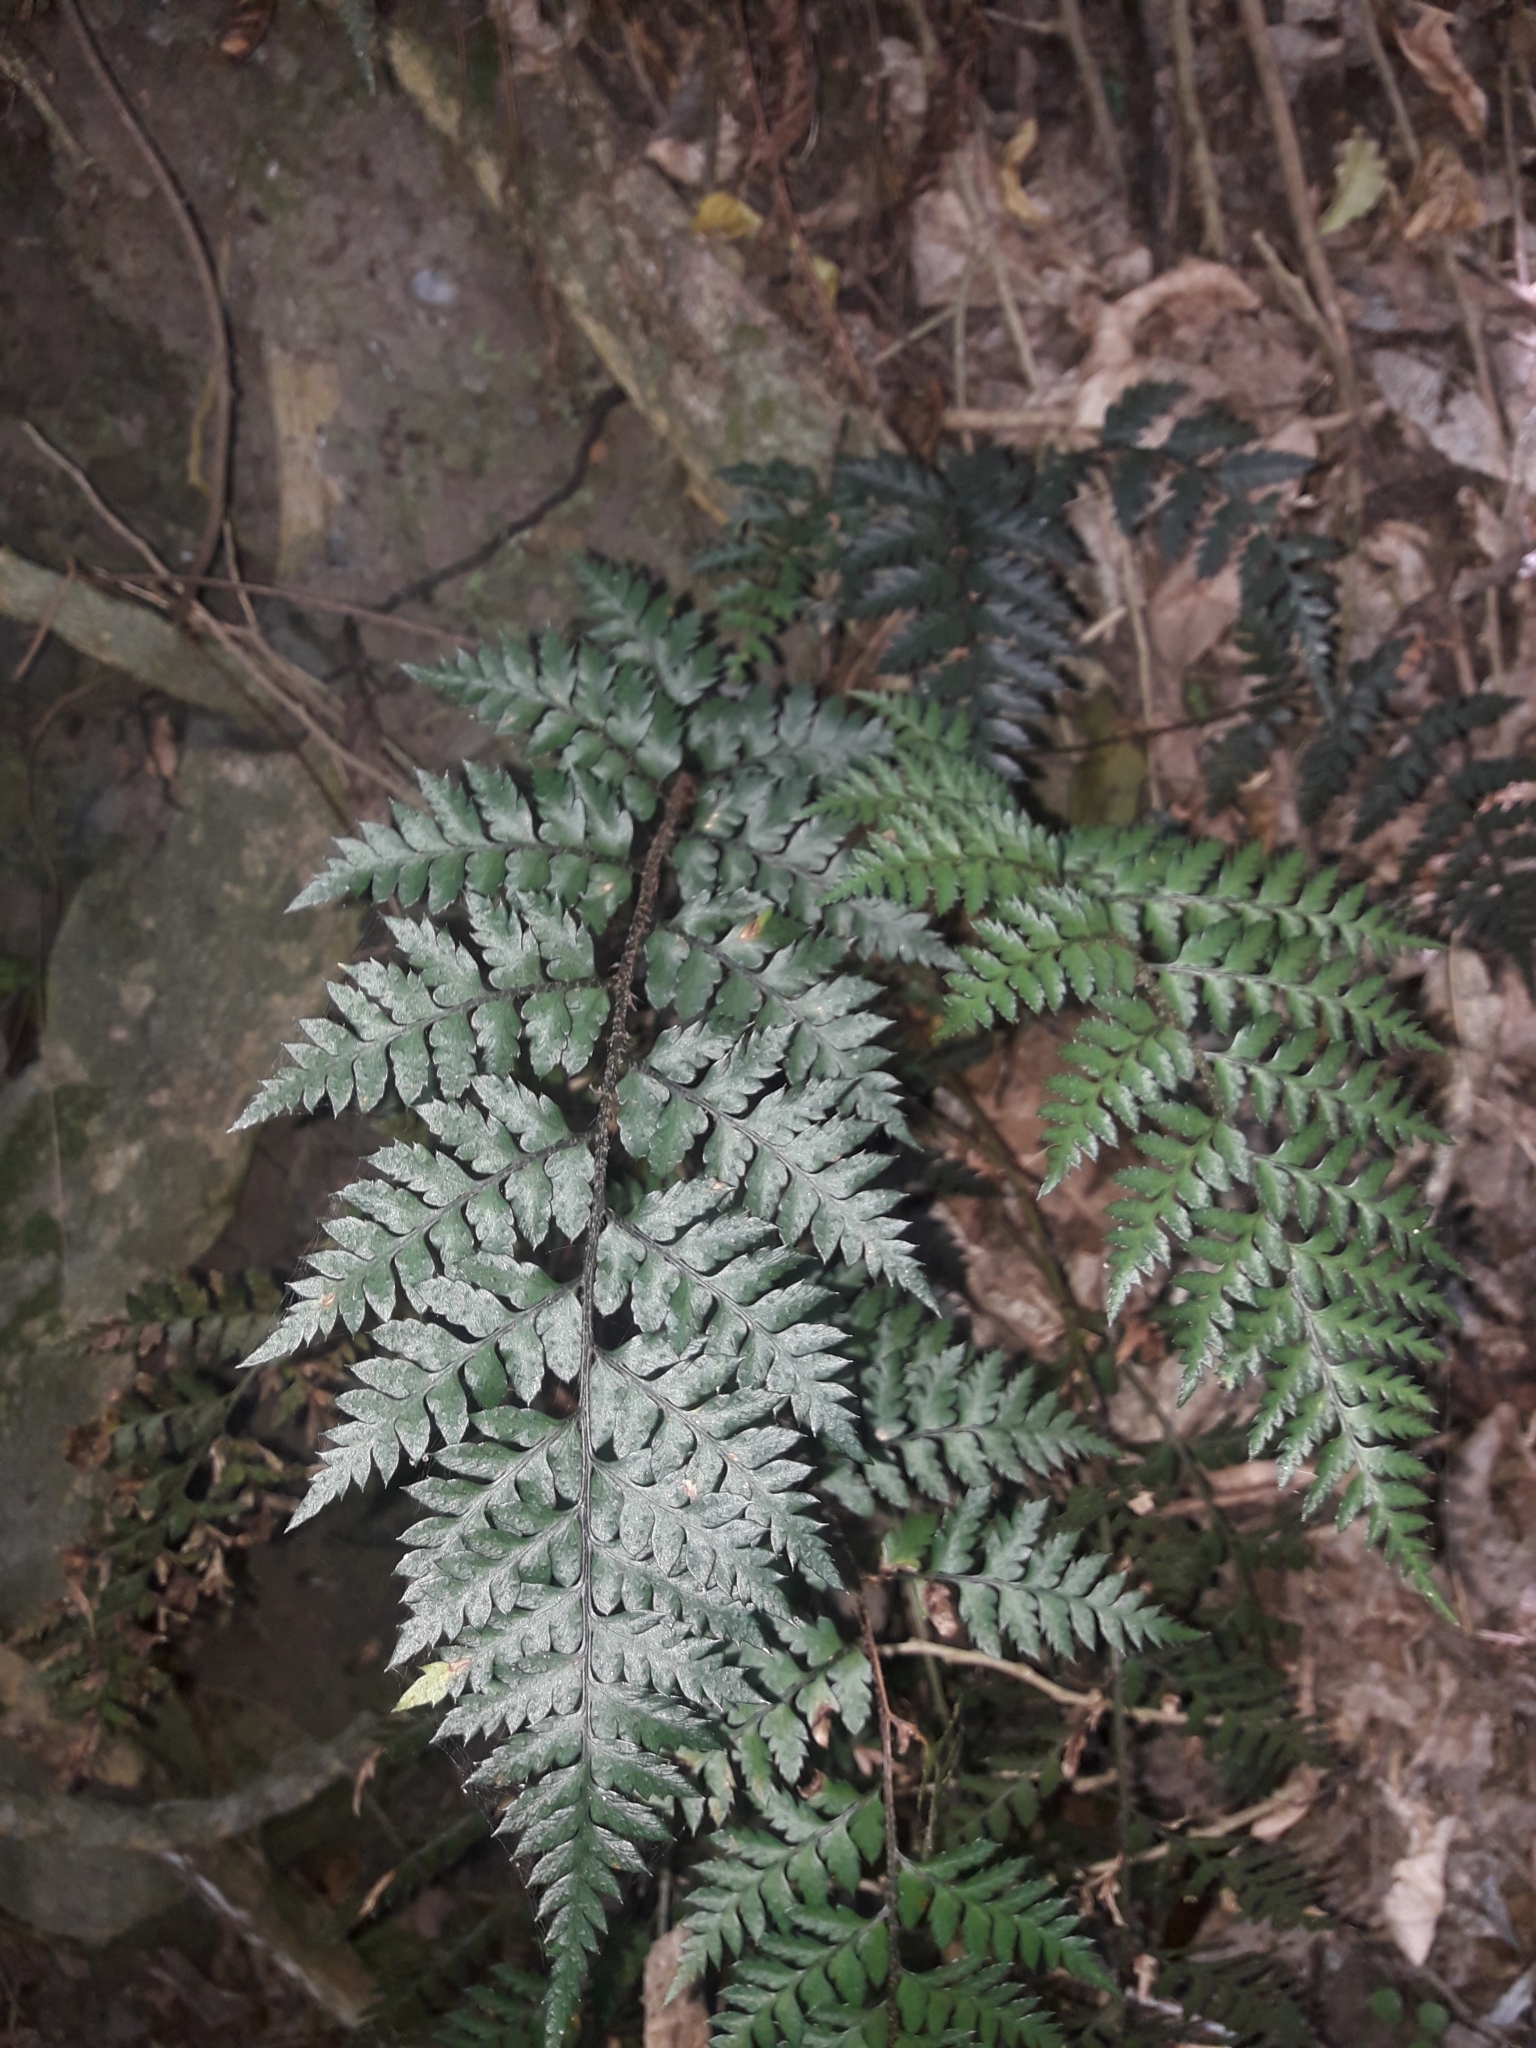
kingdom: Plantae
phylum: Tracheophyta
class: Polypodiopsida
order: Polypodiales
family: Dryopteridaceae
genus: Polystichum
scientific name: Polystichum oculatum
